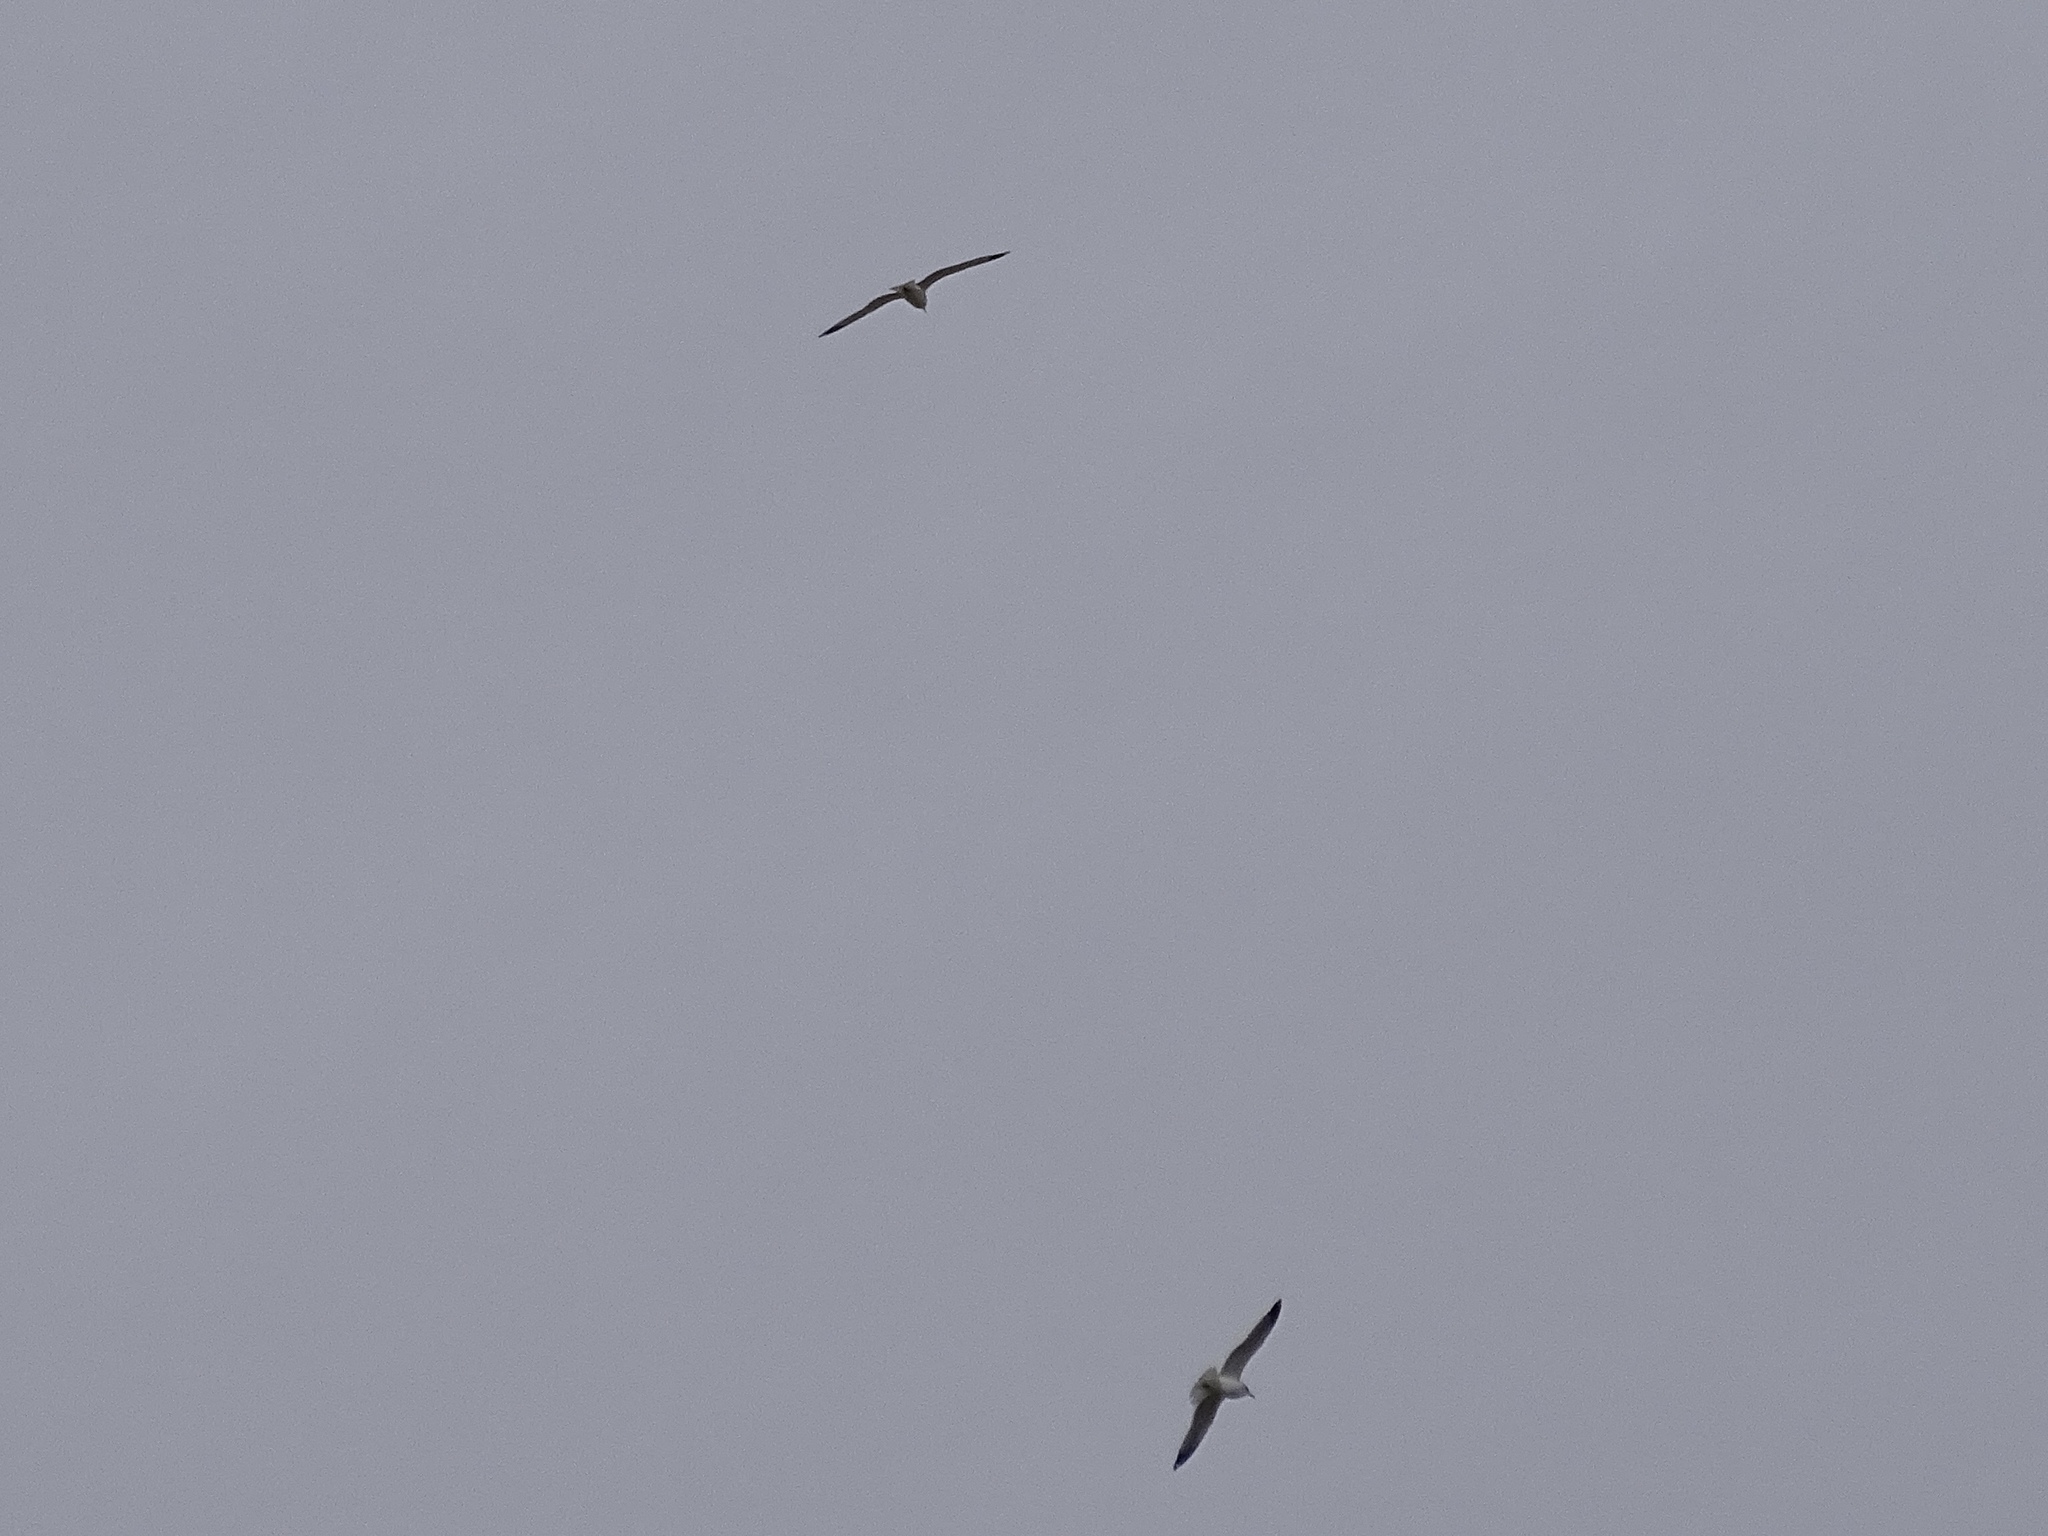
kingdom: Animalia
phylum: Chordata
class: Aves
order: Charadriiformes
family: Laridae
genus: Larus
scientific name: Larus delawarensis
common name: Ring-billed gull
